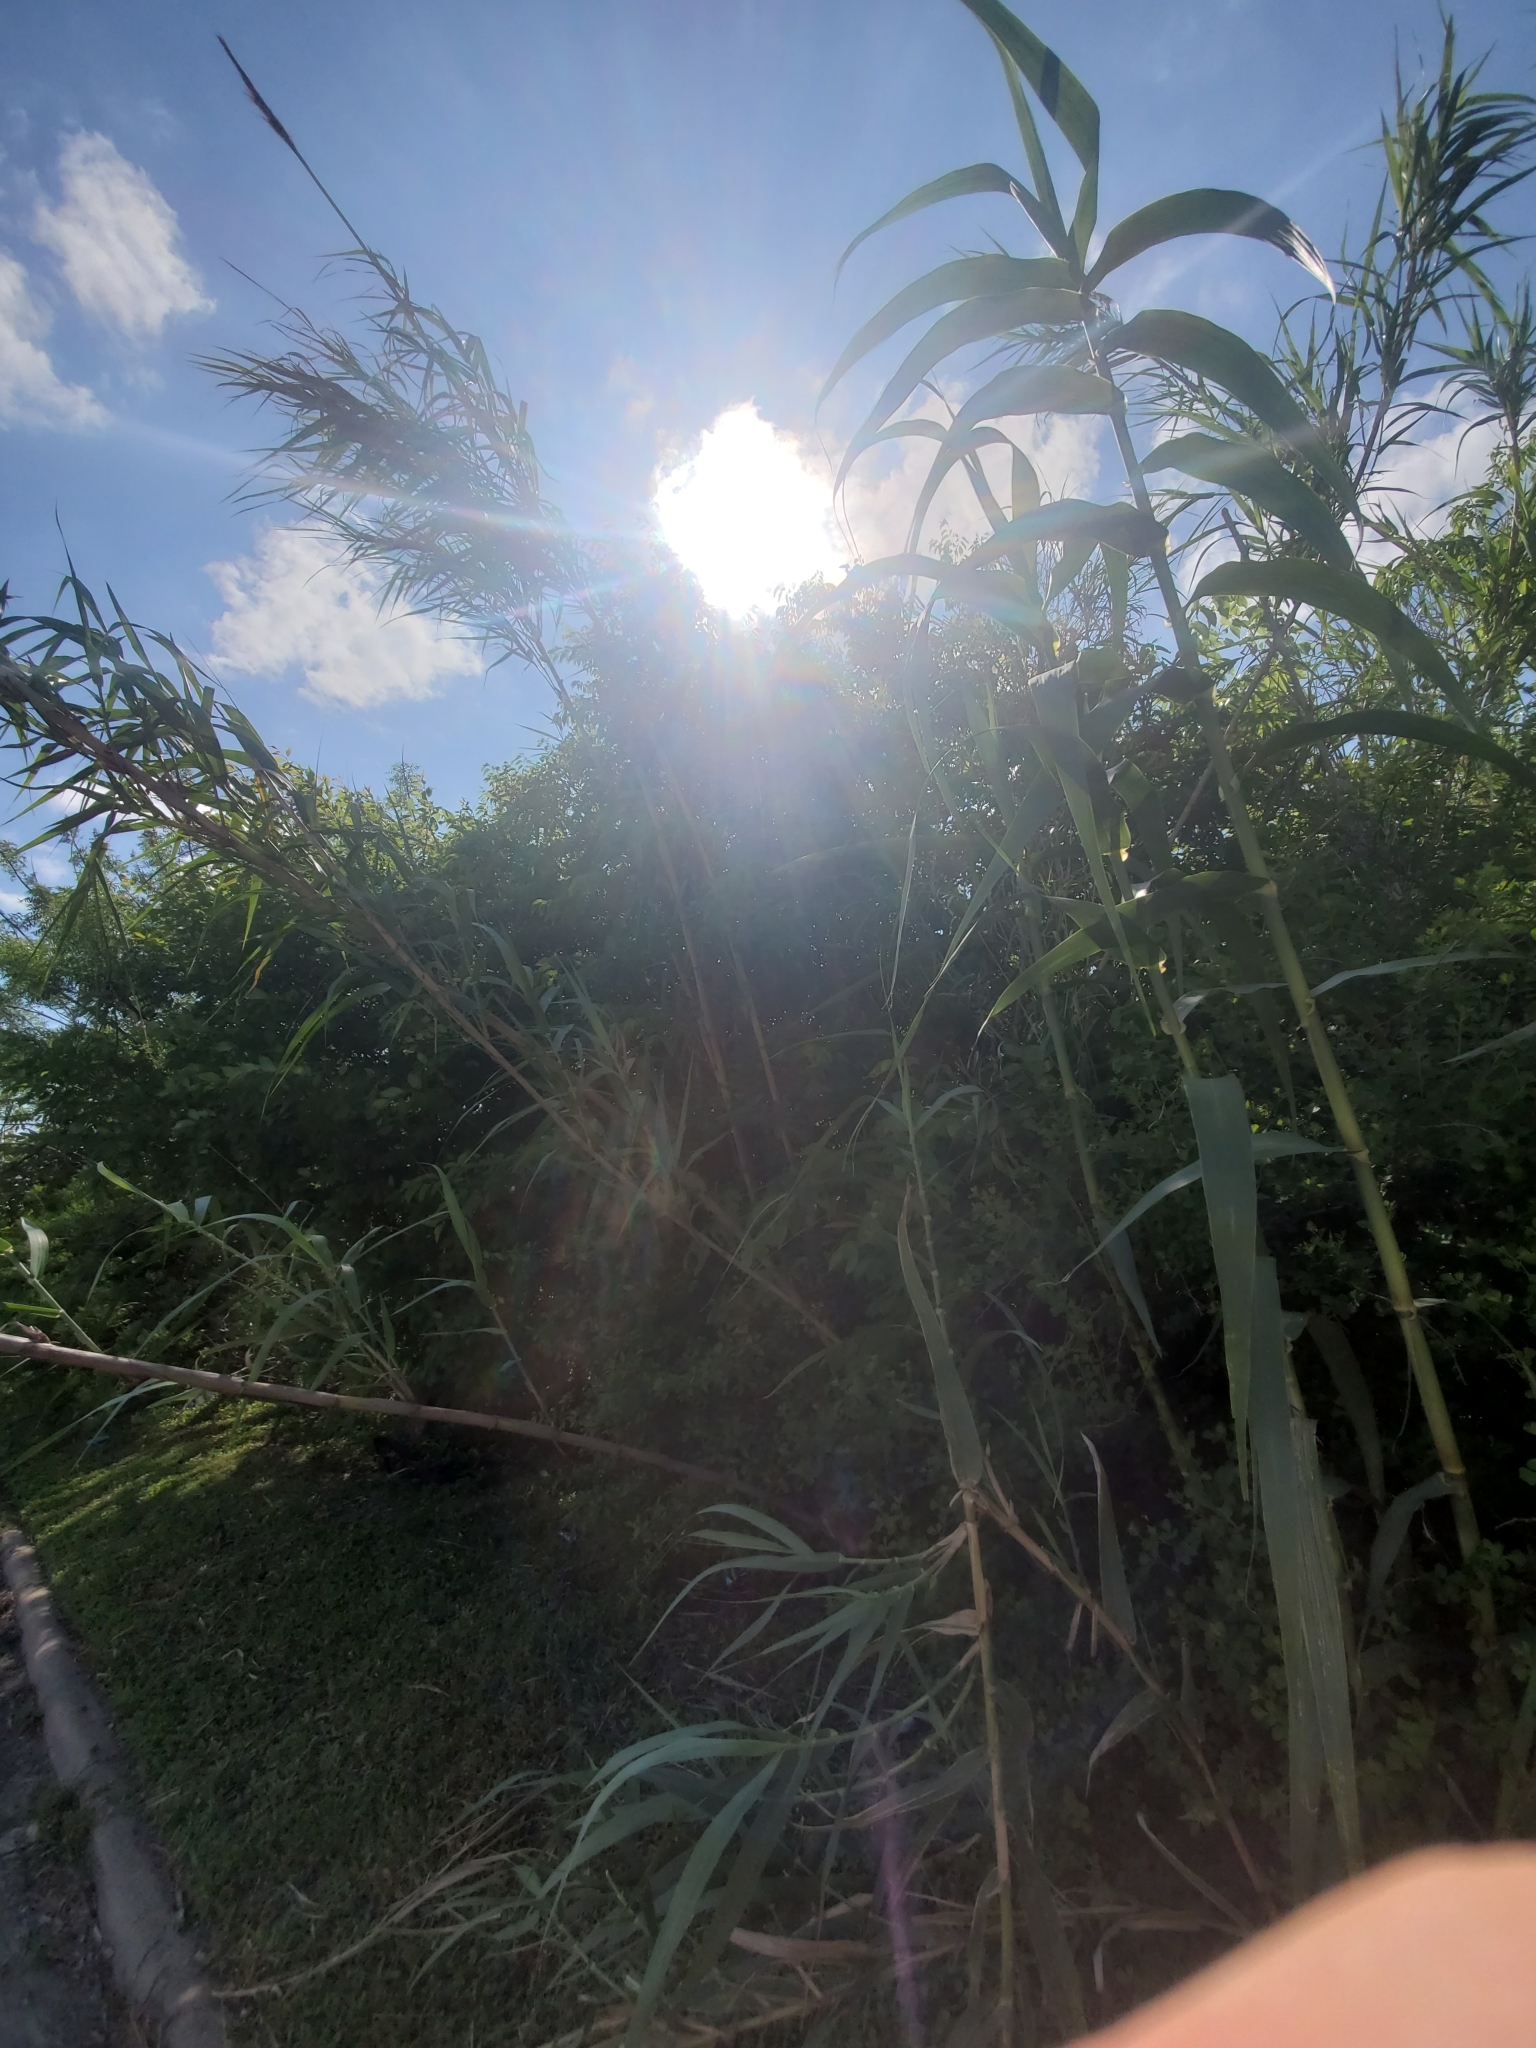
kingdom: Plantae
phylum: Tracheophyta
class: Liliopsida
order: Poales
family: Poaceae
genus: Arundo
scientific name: Arundo donax
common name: Giant reed
